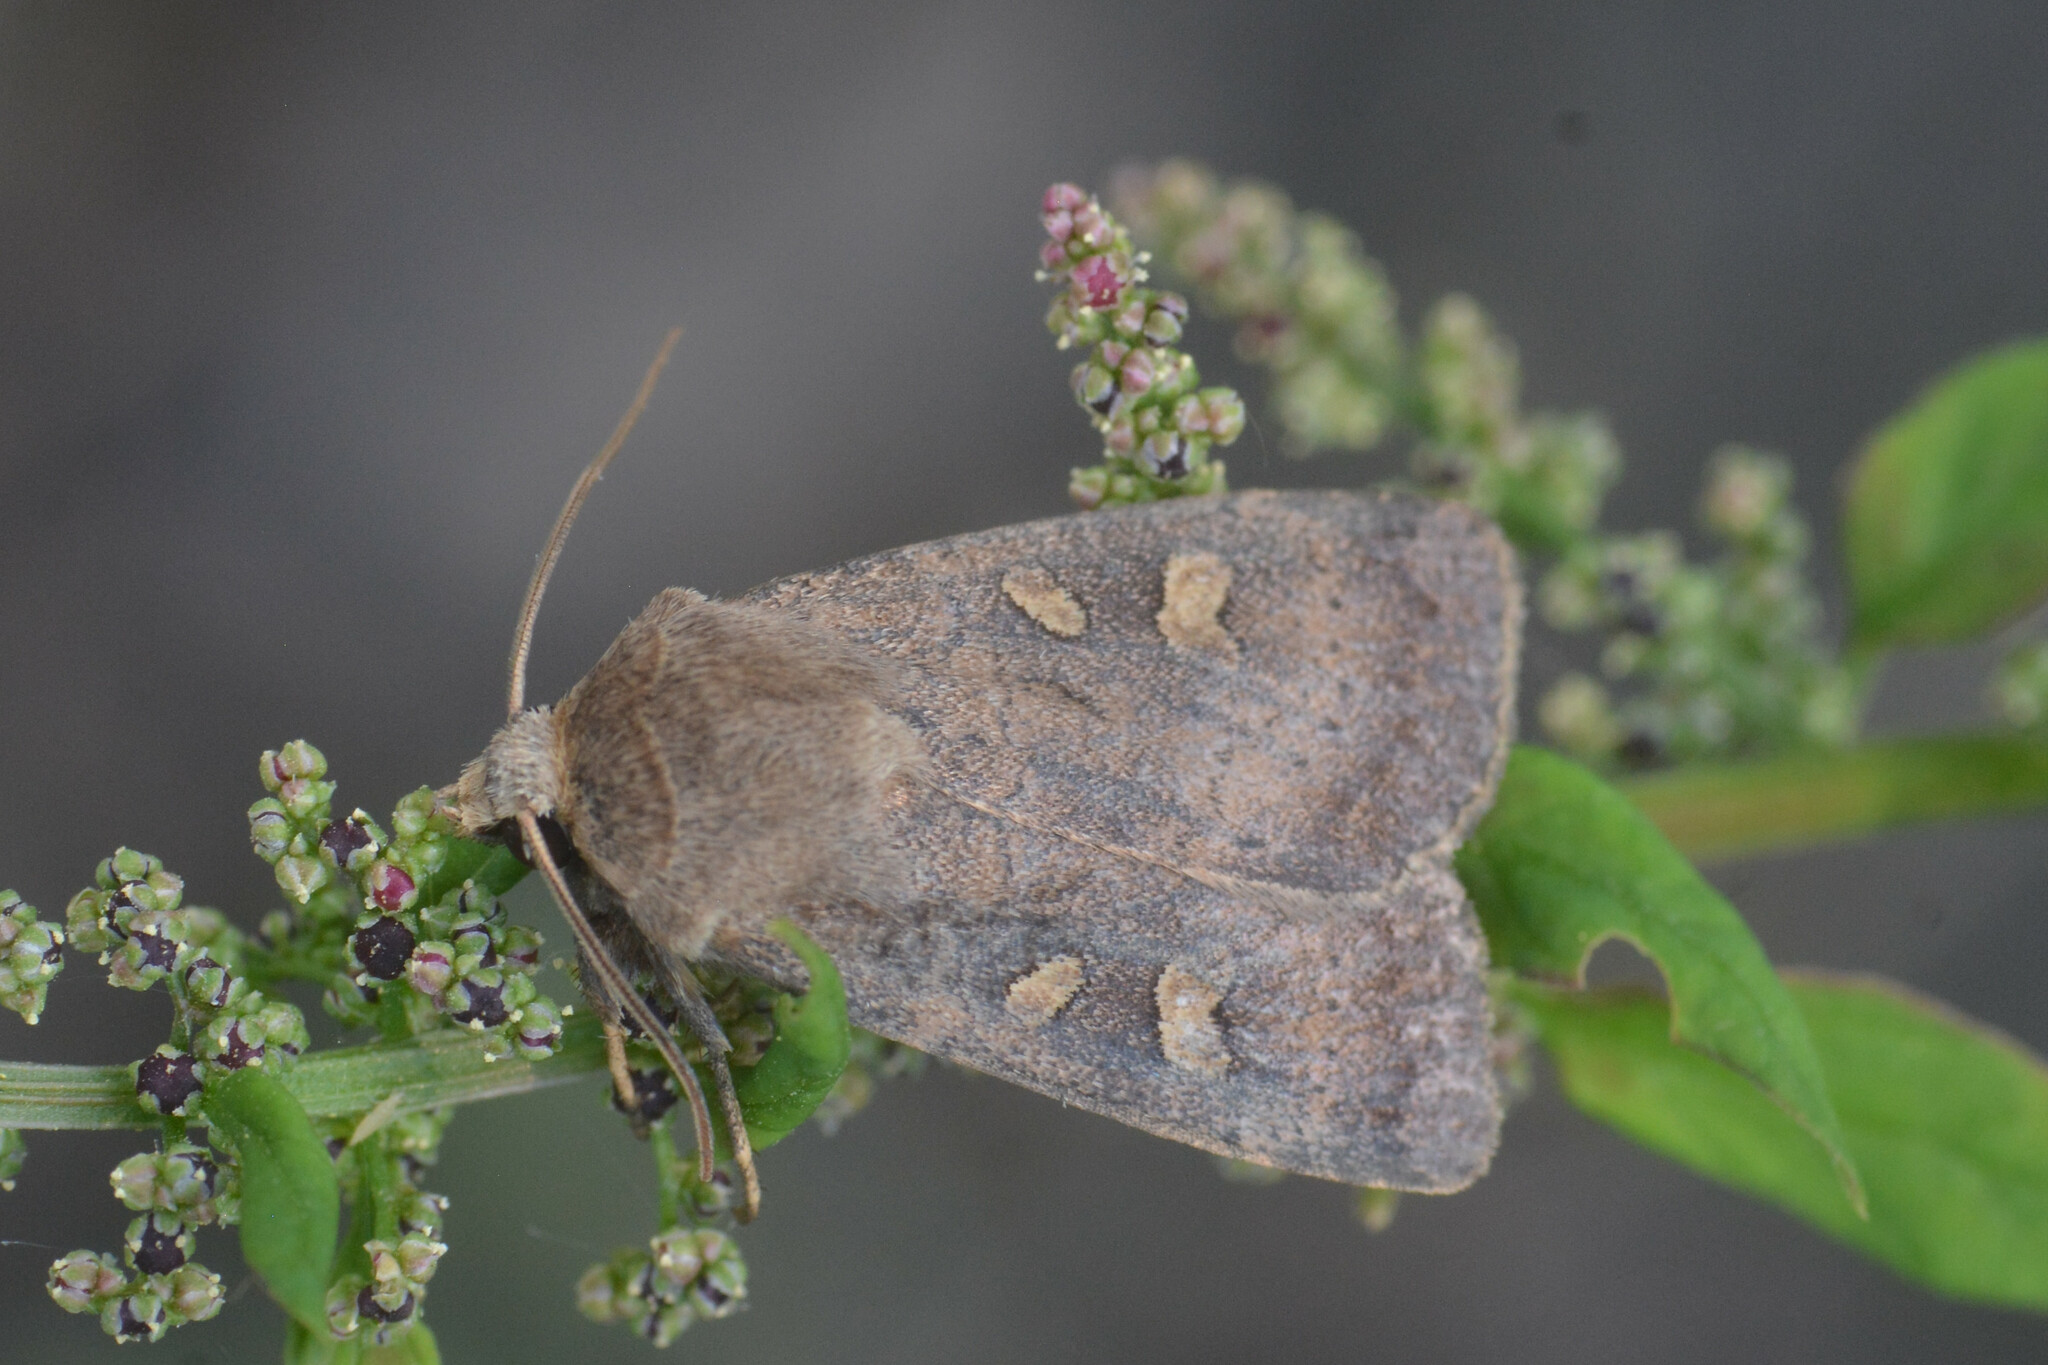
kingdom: Animalia
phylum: Arthropoda
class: Insecta
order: Lepidoptera
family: Noctuidae
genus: Xestia
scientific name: Xestia xanthographa
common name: Square-spot rustic
